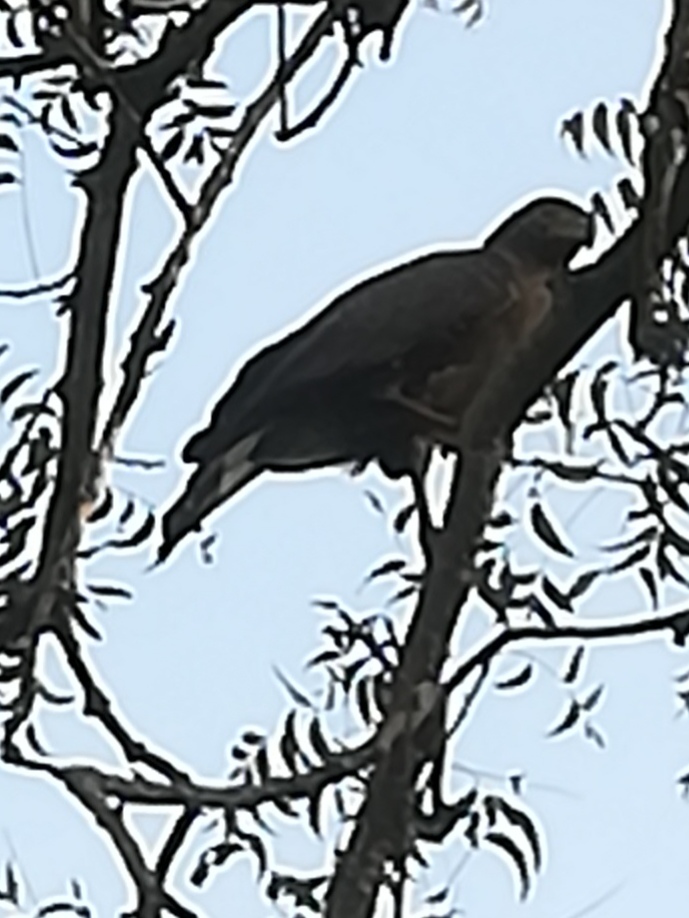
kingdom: Animalia
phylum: Chordata
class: Aves
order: Accipitriformes
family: Accipitridae
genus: Spilornis
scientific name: Spilornis cheela
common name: Crested serpent eagle
